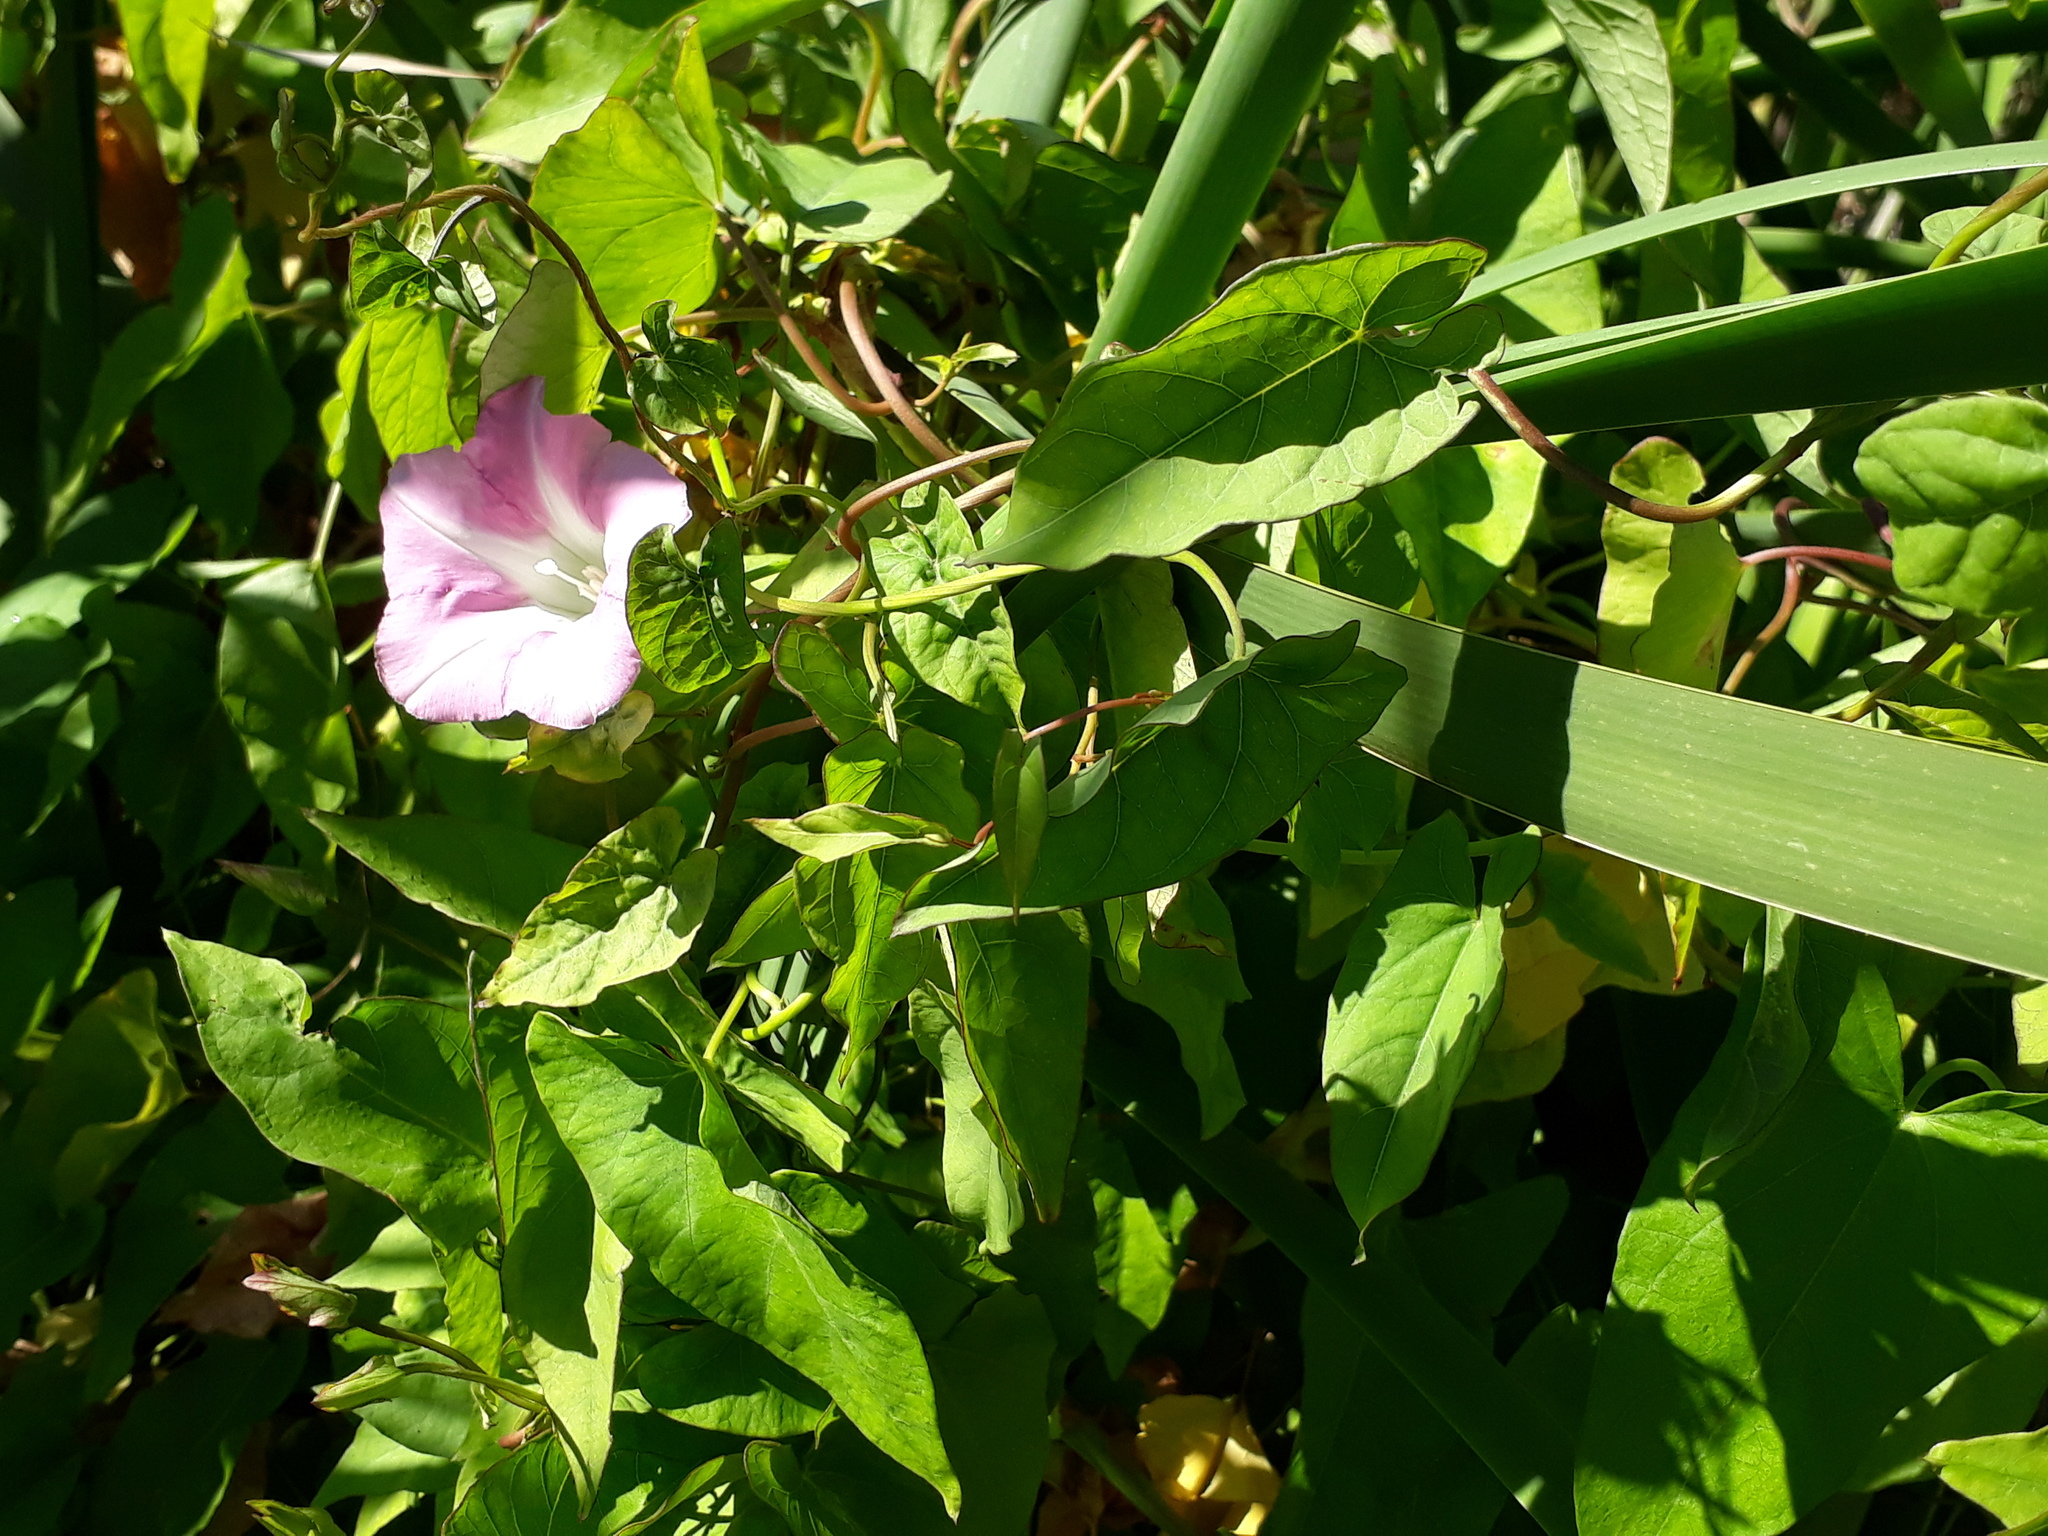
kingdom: Plantae
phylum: Tracheophyta
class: Magnoliopsida
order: Solanales
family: Convolvulaceae
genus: Calystegia
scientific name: Calystegia sepium
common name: Hedge bindweed
